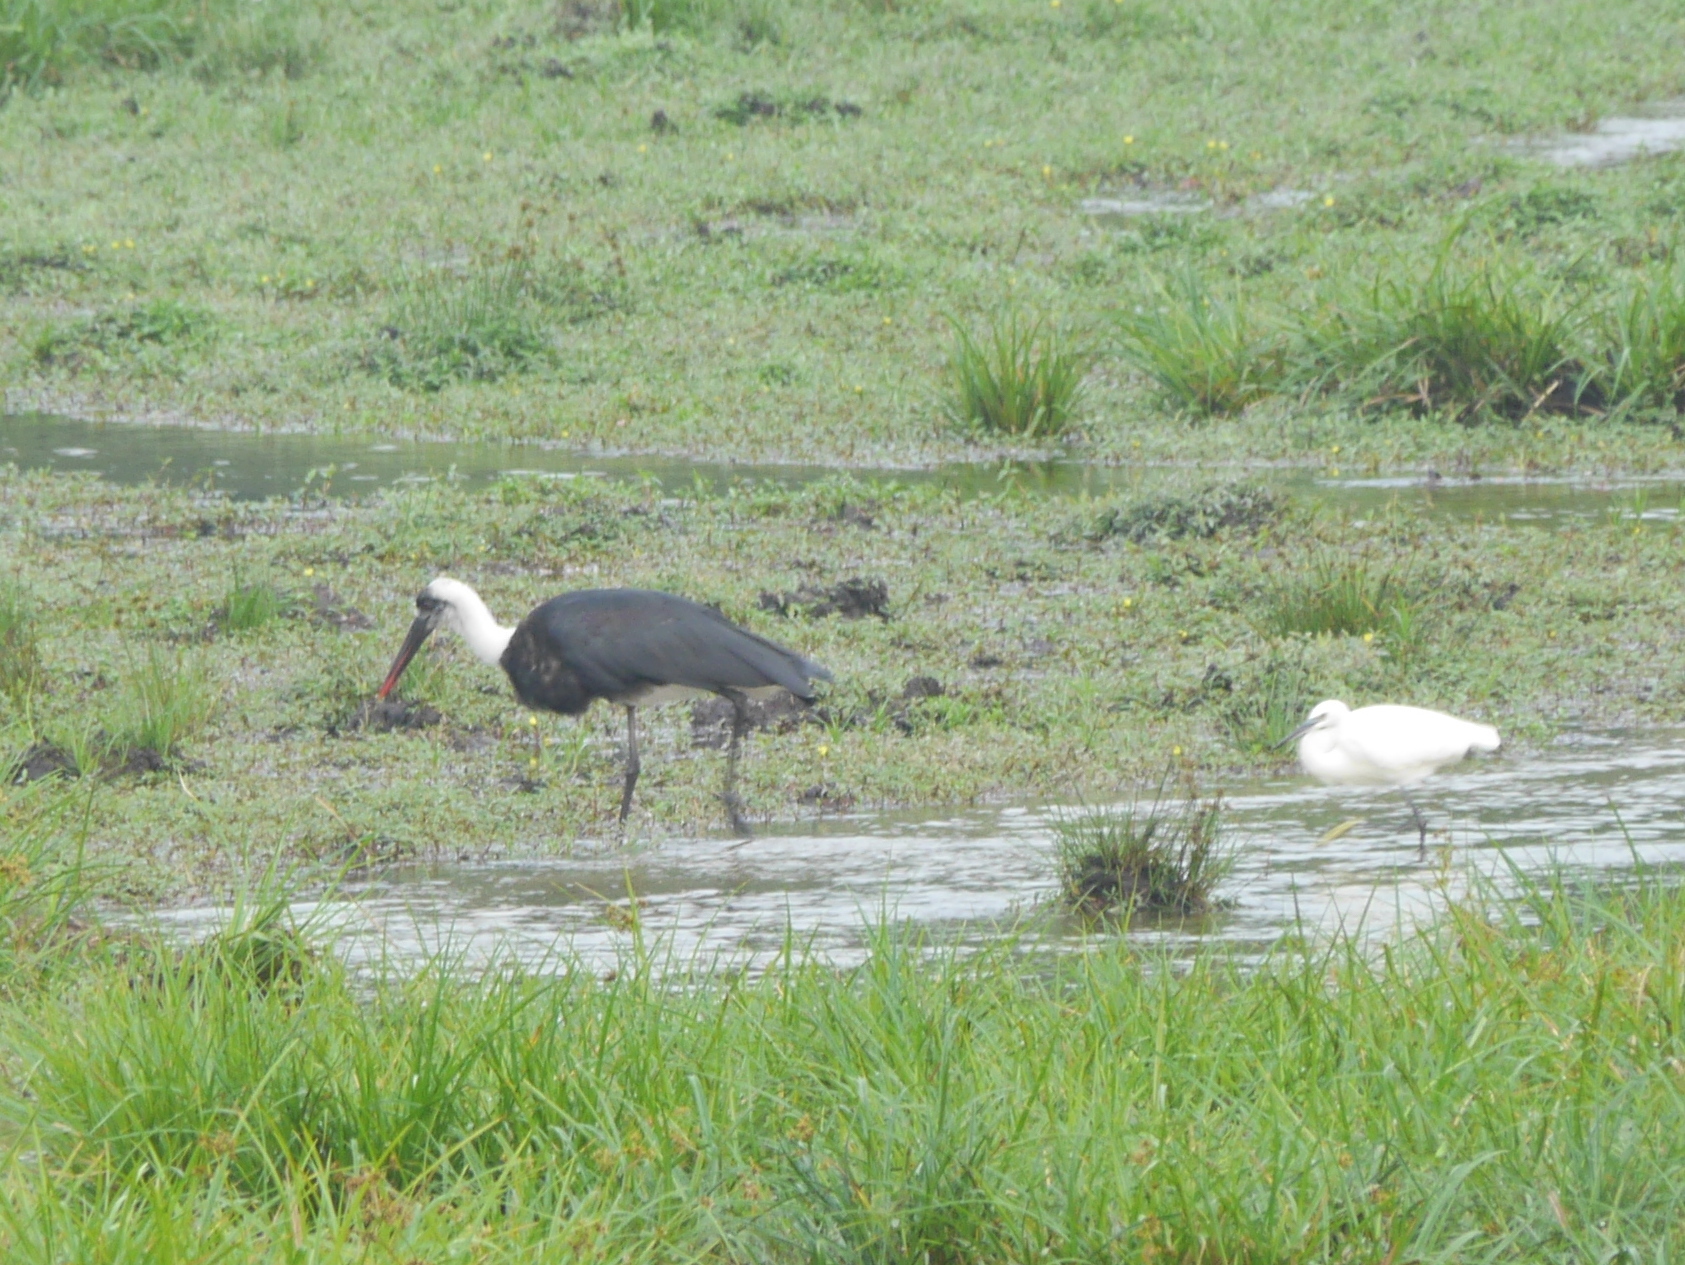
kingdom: Animalia
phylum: Chordata
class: Aves
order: Ciconiiformes
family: Ciconiidae
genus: Ciconia
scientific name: Ciconia microscelis
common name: African woollyneck
